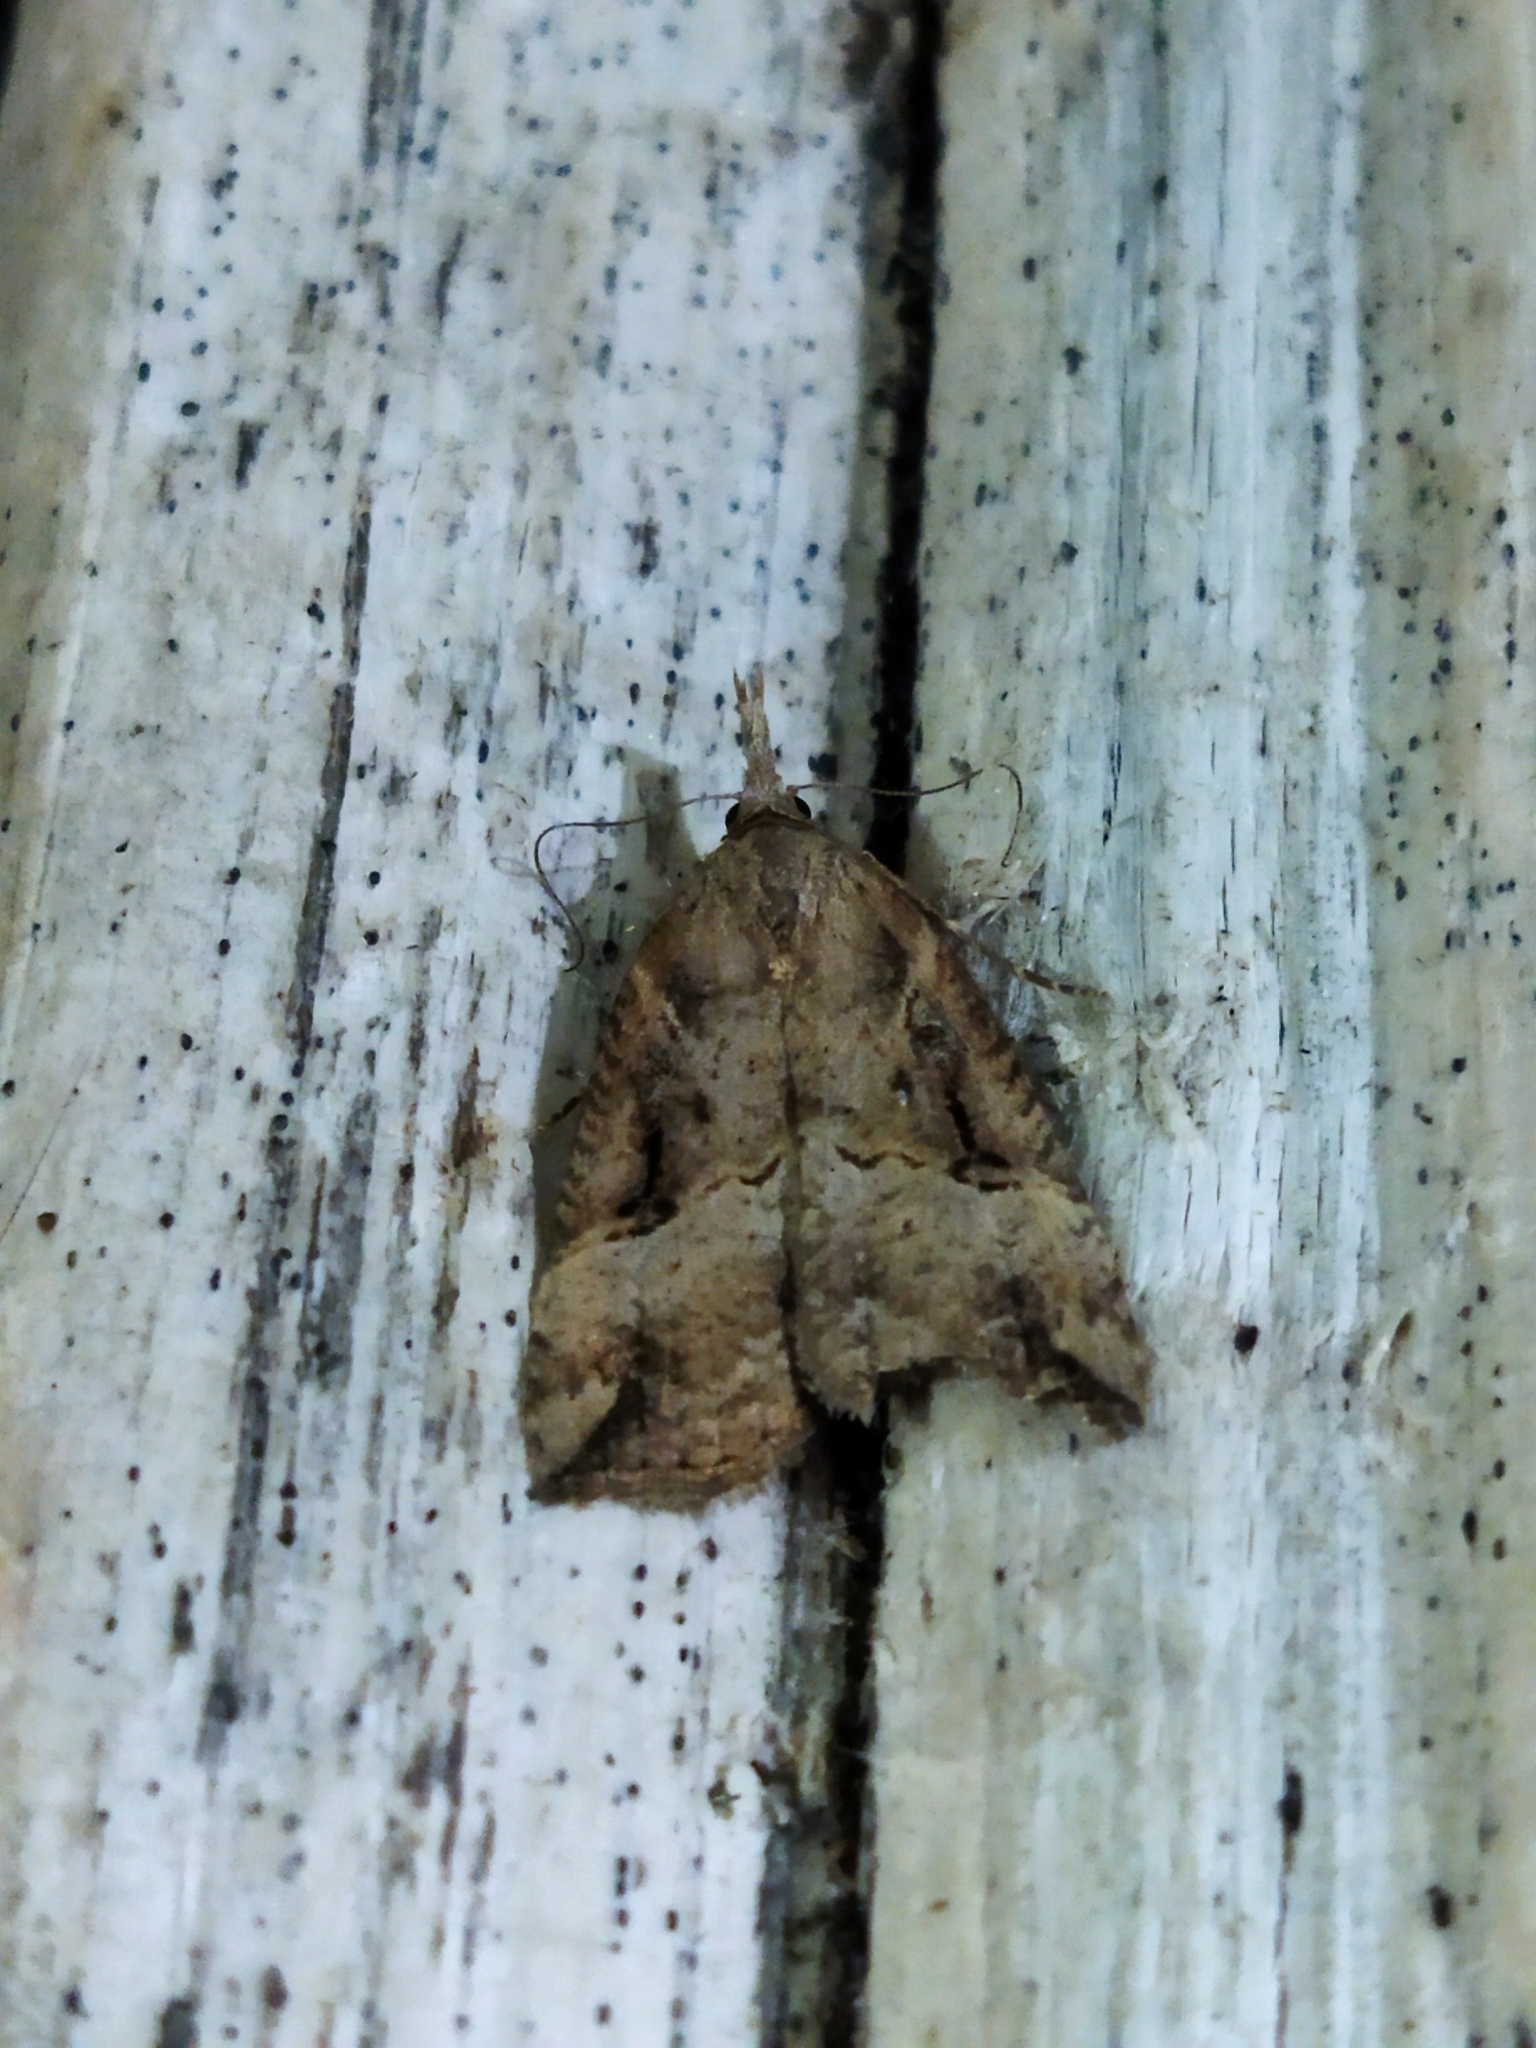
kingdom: Animalia
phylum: Arthropoda
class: Insecta
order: Lepidoptera
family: Erebidae
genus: Hypena
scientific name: Hypena rostralis
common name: Buttoned snout
